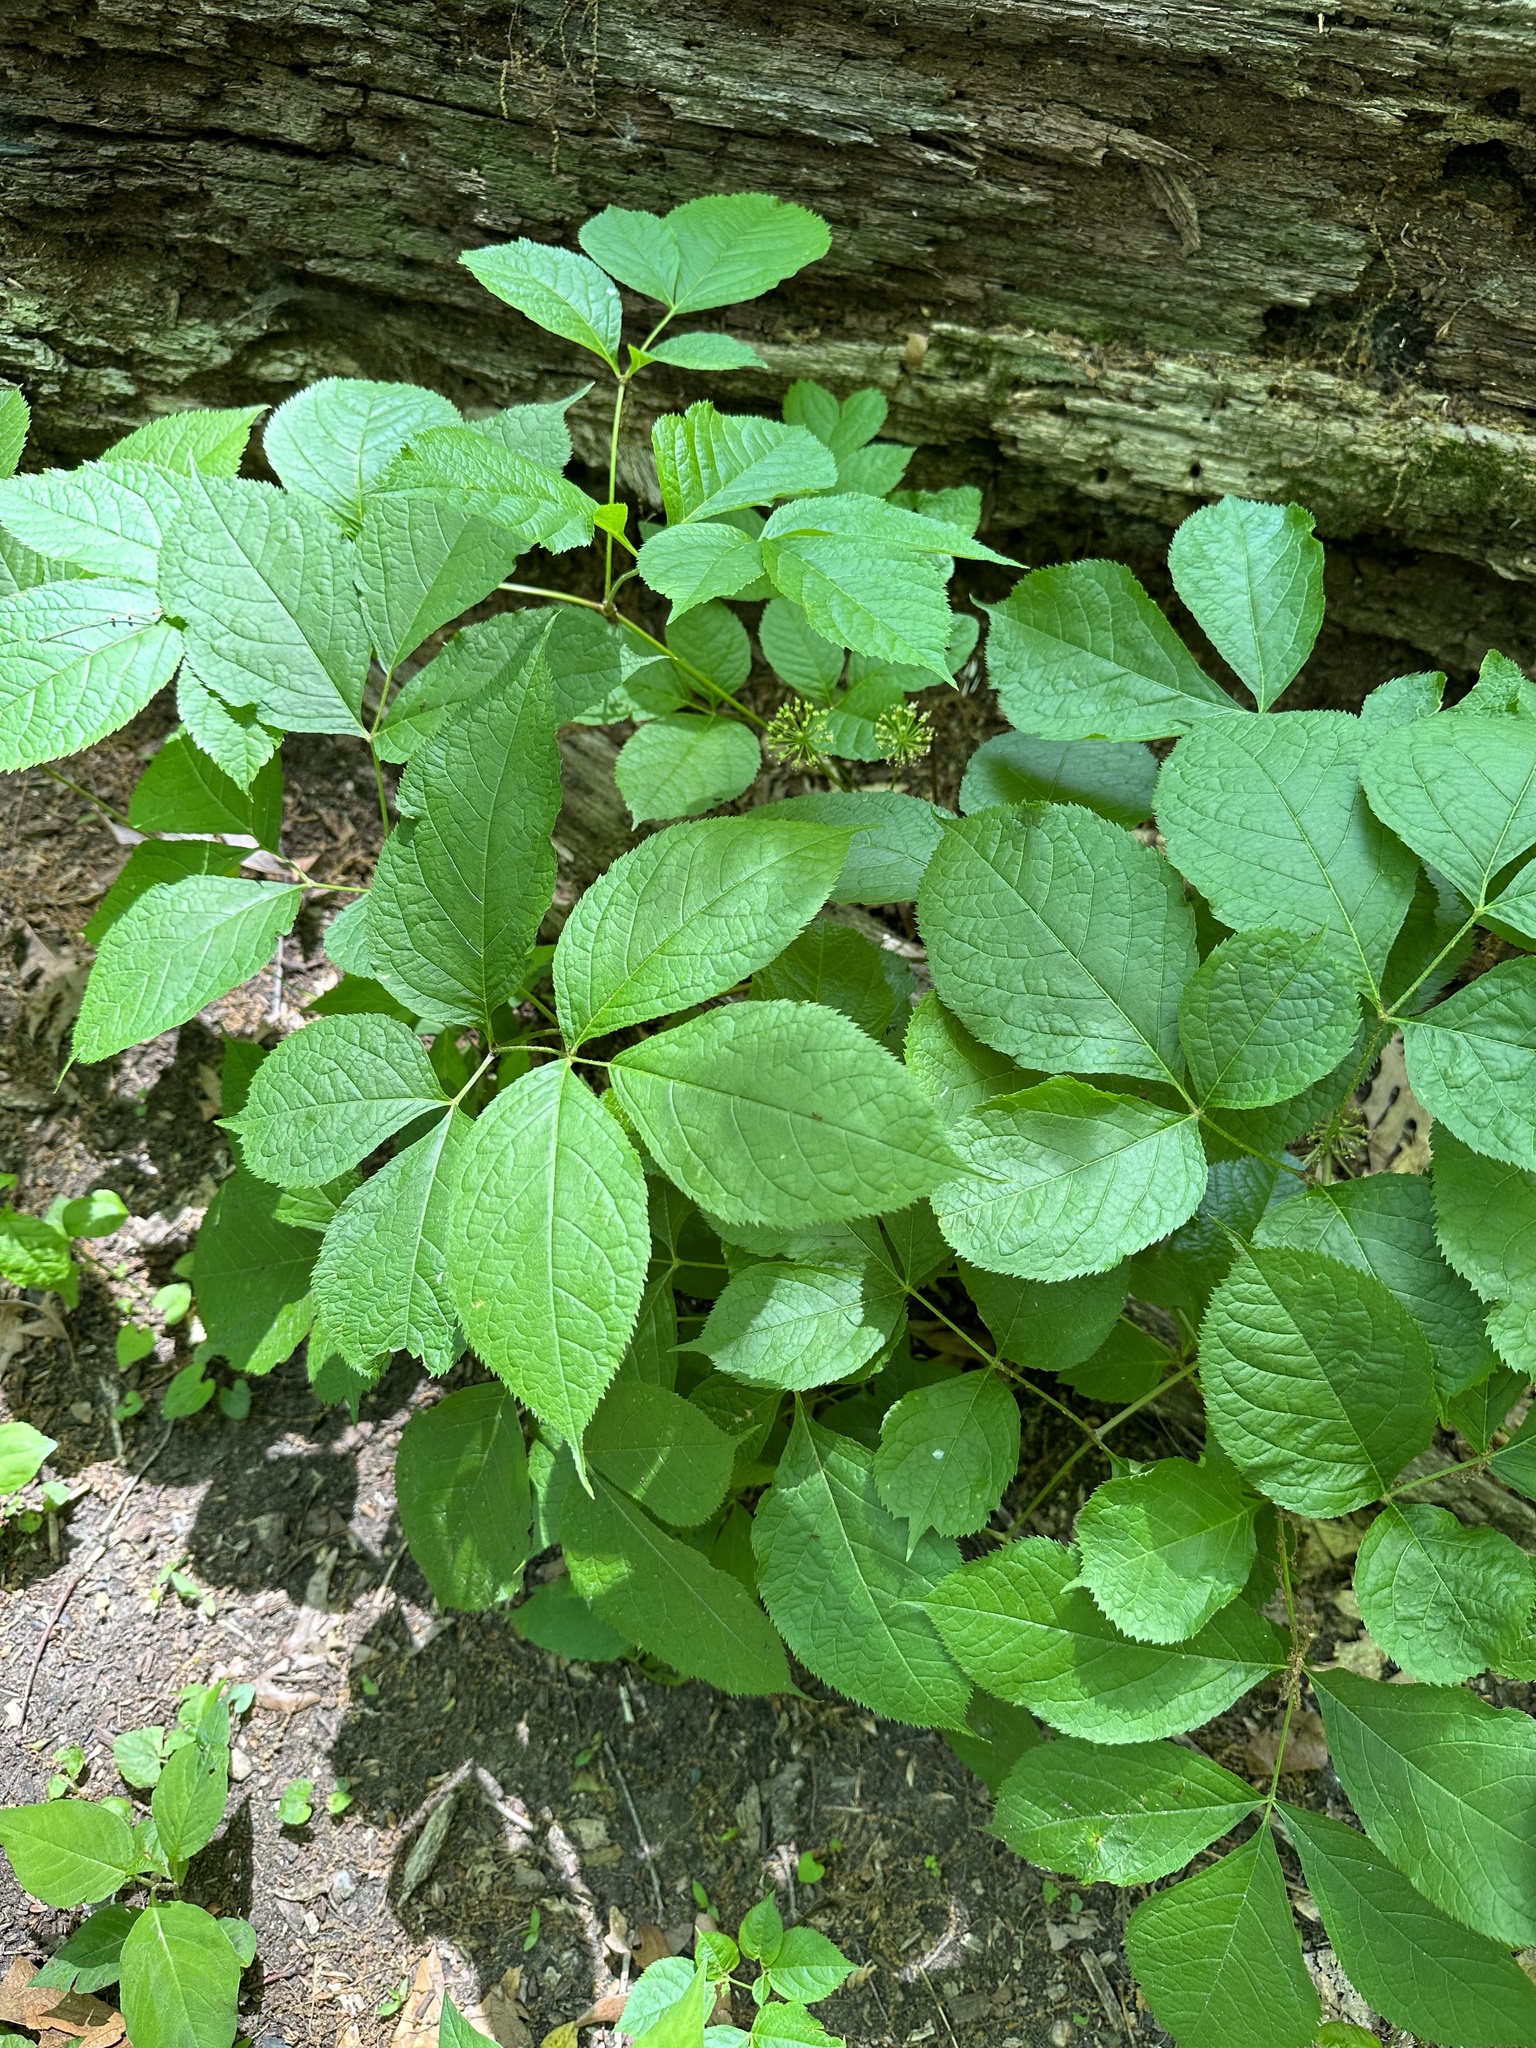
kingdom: Plantae
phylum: Tracheophyta
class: Magnoliopsida
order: Apiales
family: Araliaceae
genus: Aralia
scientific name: Aralia nudicaulis
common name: Wild sarsaparilla
